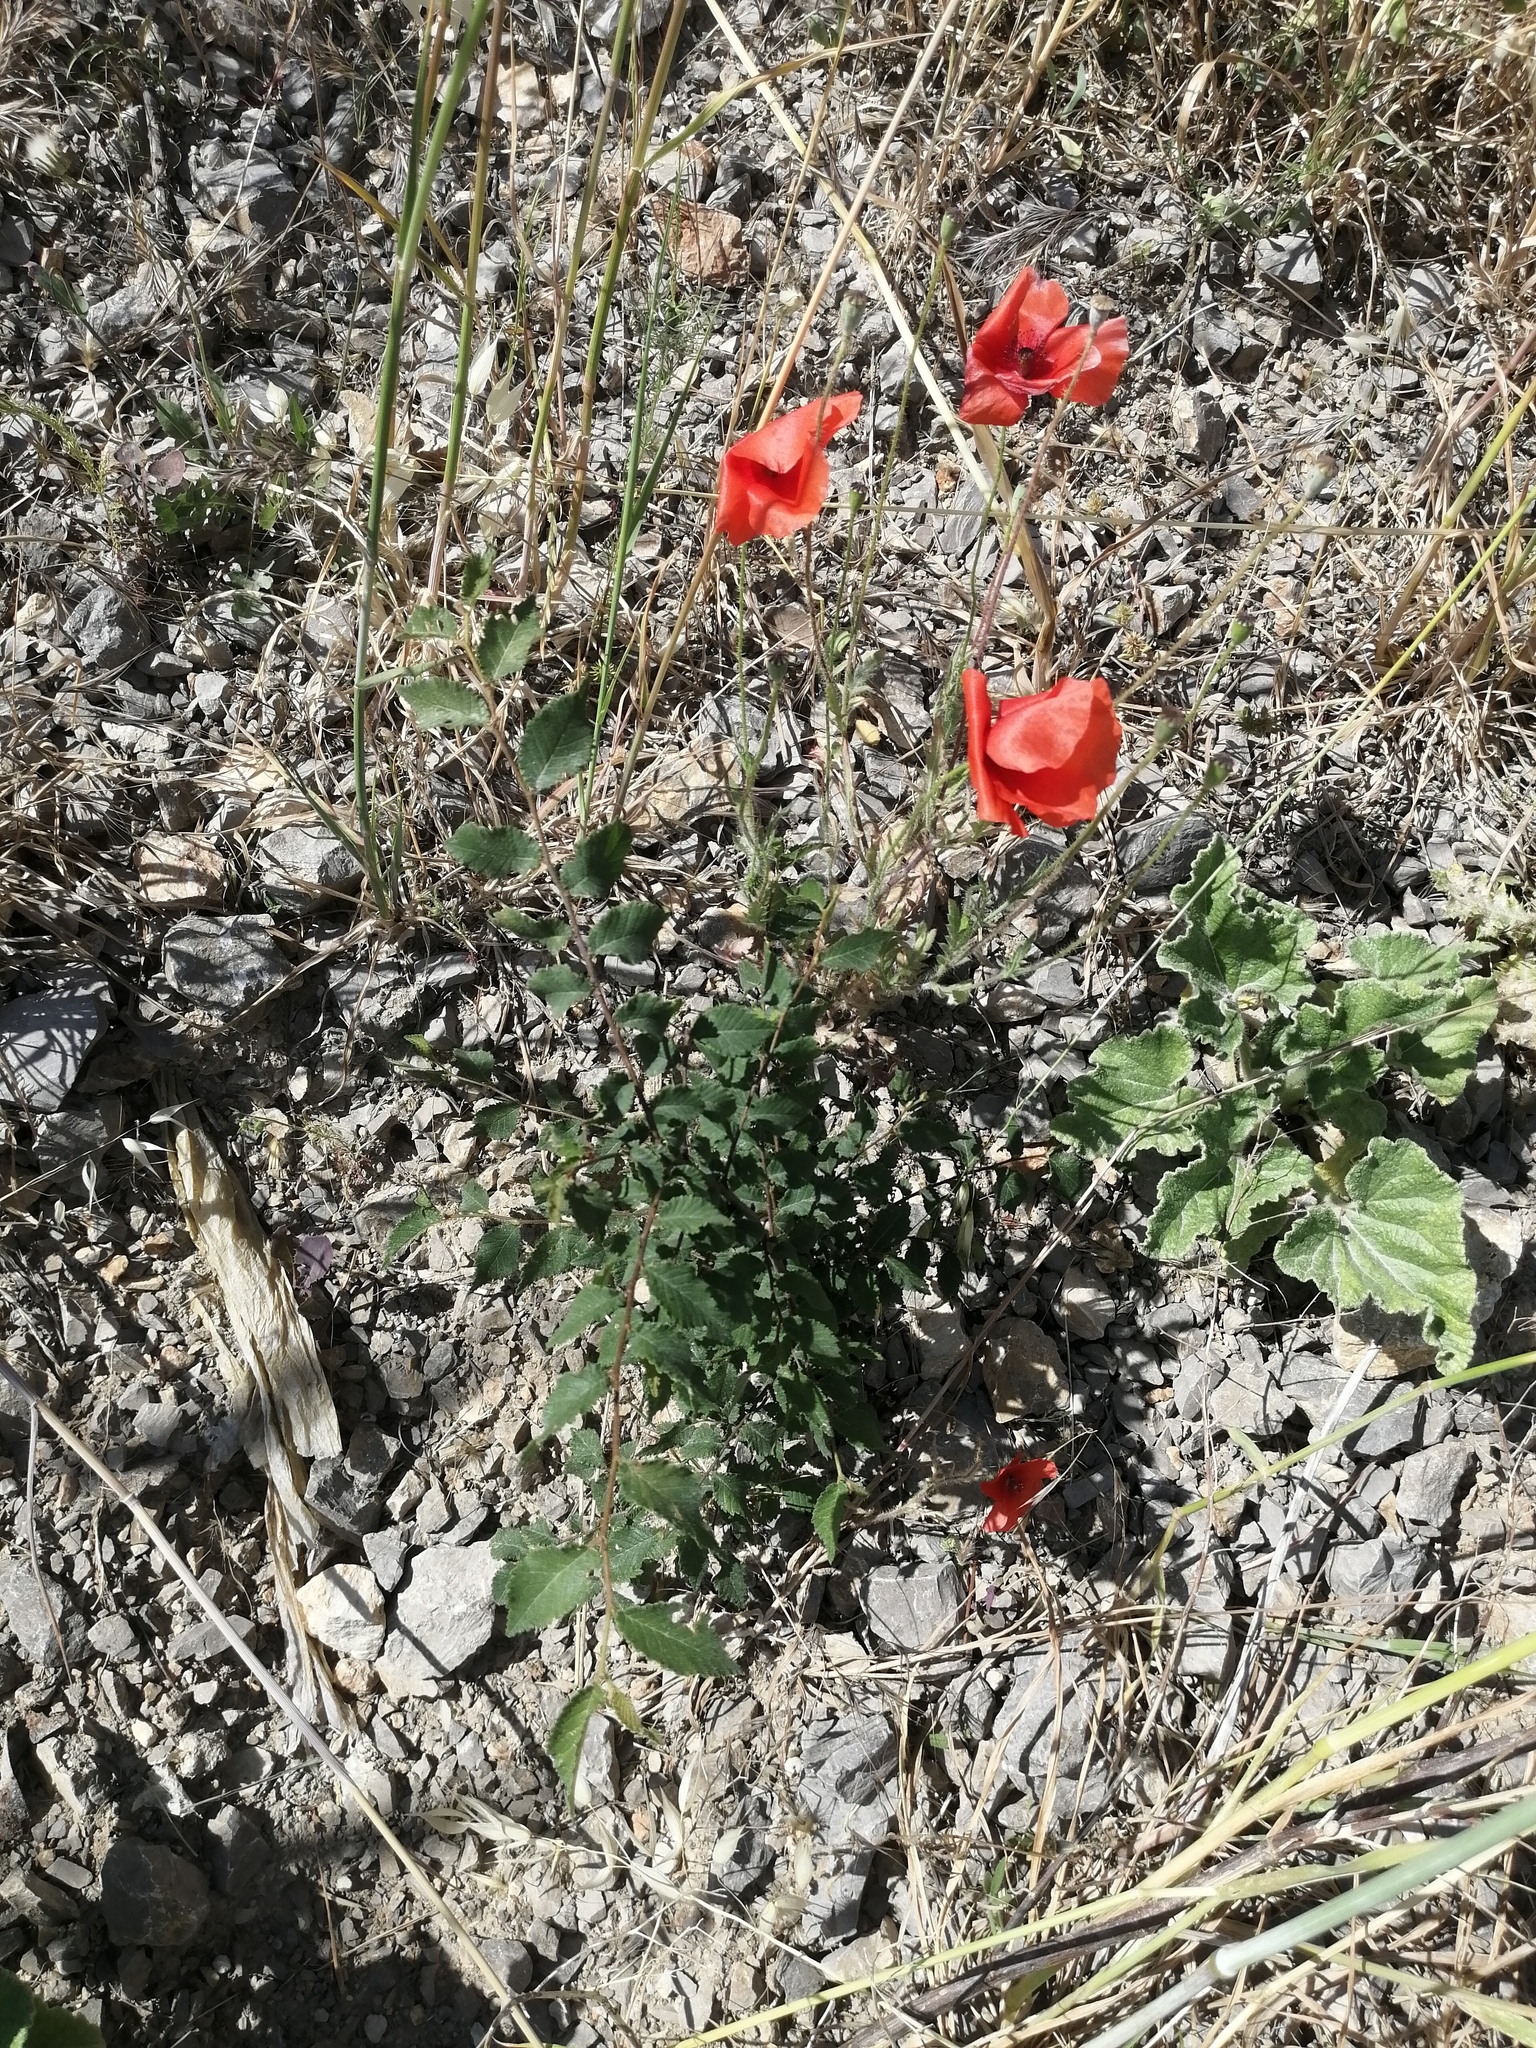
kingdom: Plantae
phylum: Tracheophyta
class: Magnoliopsida
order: Ranunculales
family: Papaveraceae
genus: Papaver
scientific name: Papaver rhoeas
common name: Corn poppy
